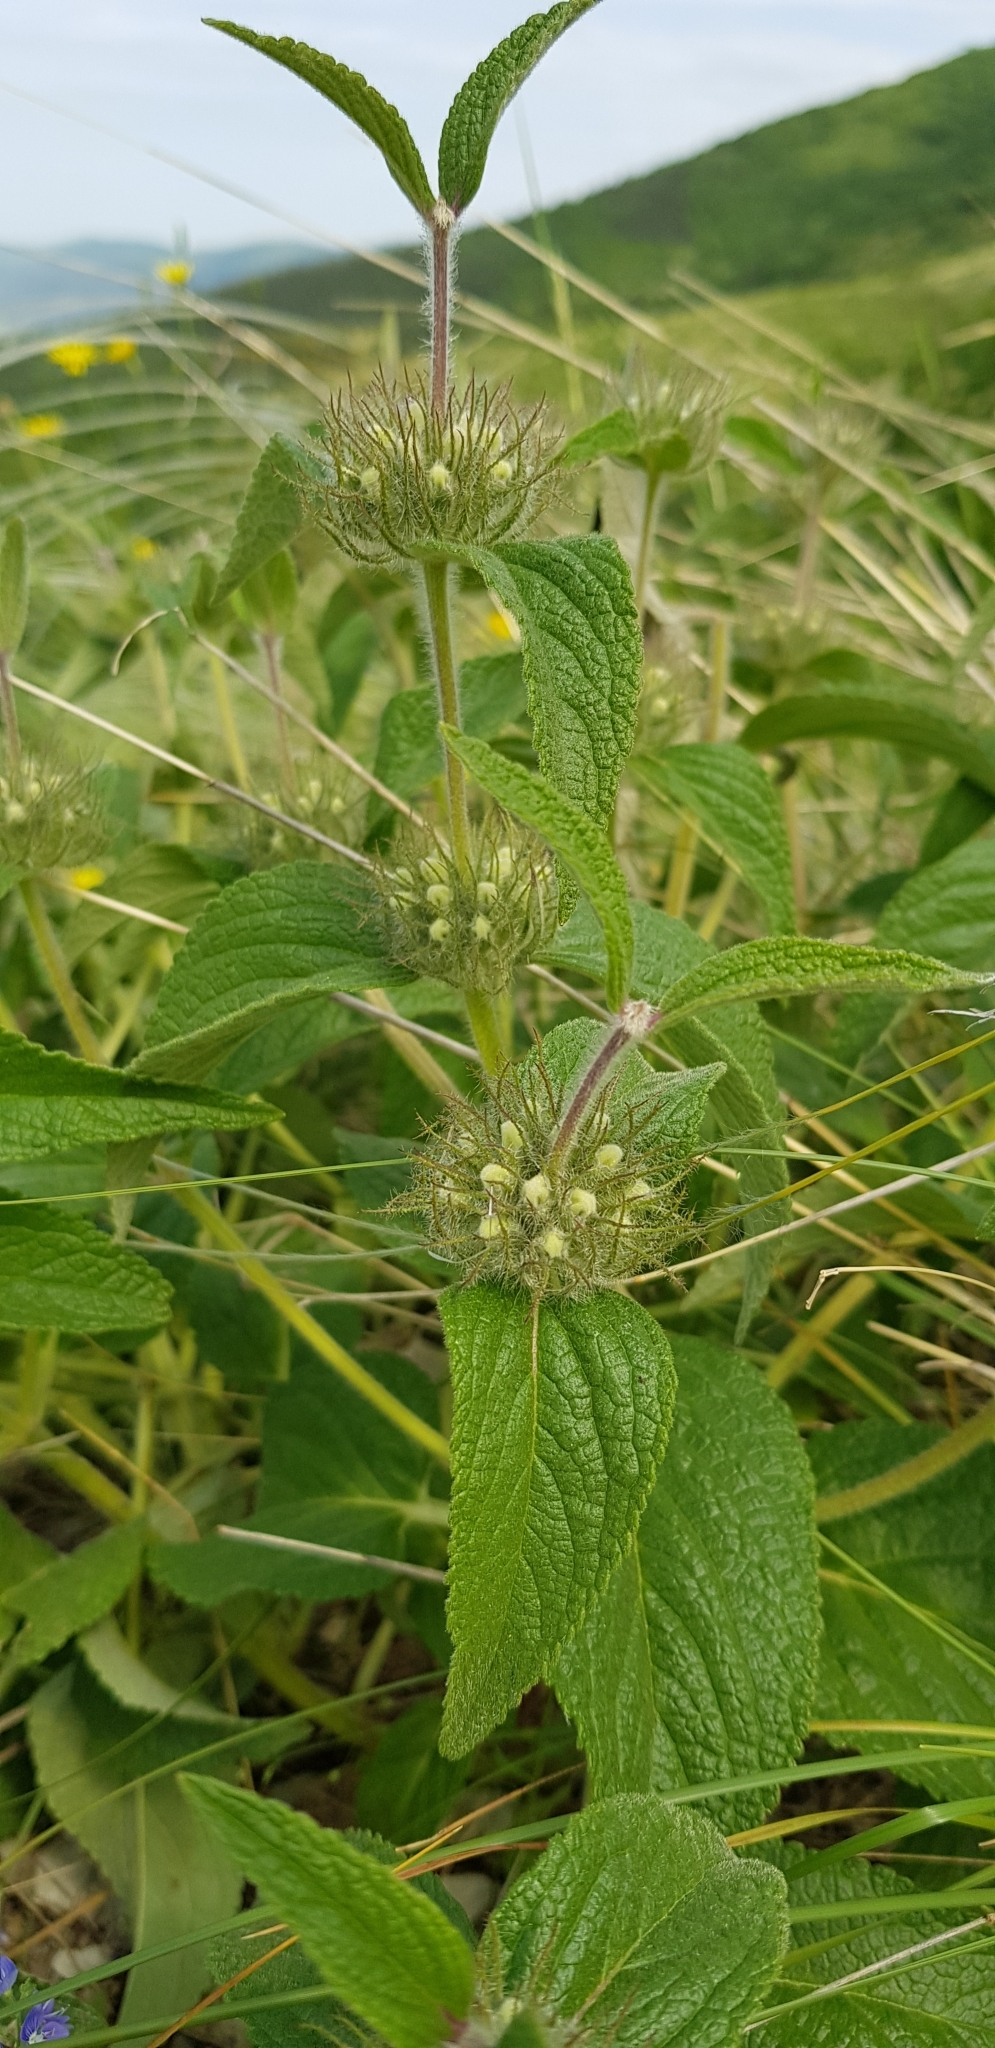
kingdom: Plantae
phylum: Tracheophyta
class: Magnoliopsida
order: Lamiales
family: Lamiaceae
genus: Phlomis
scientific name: Phlomis herba-venti
